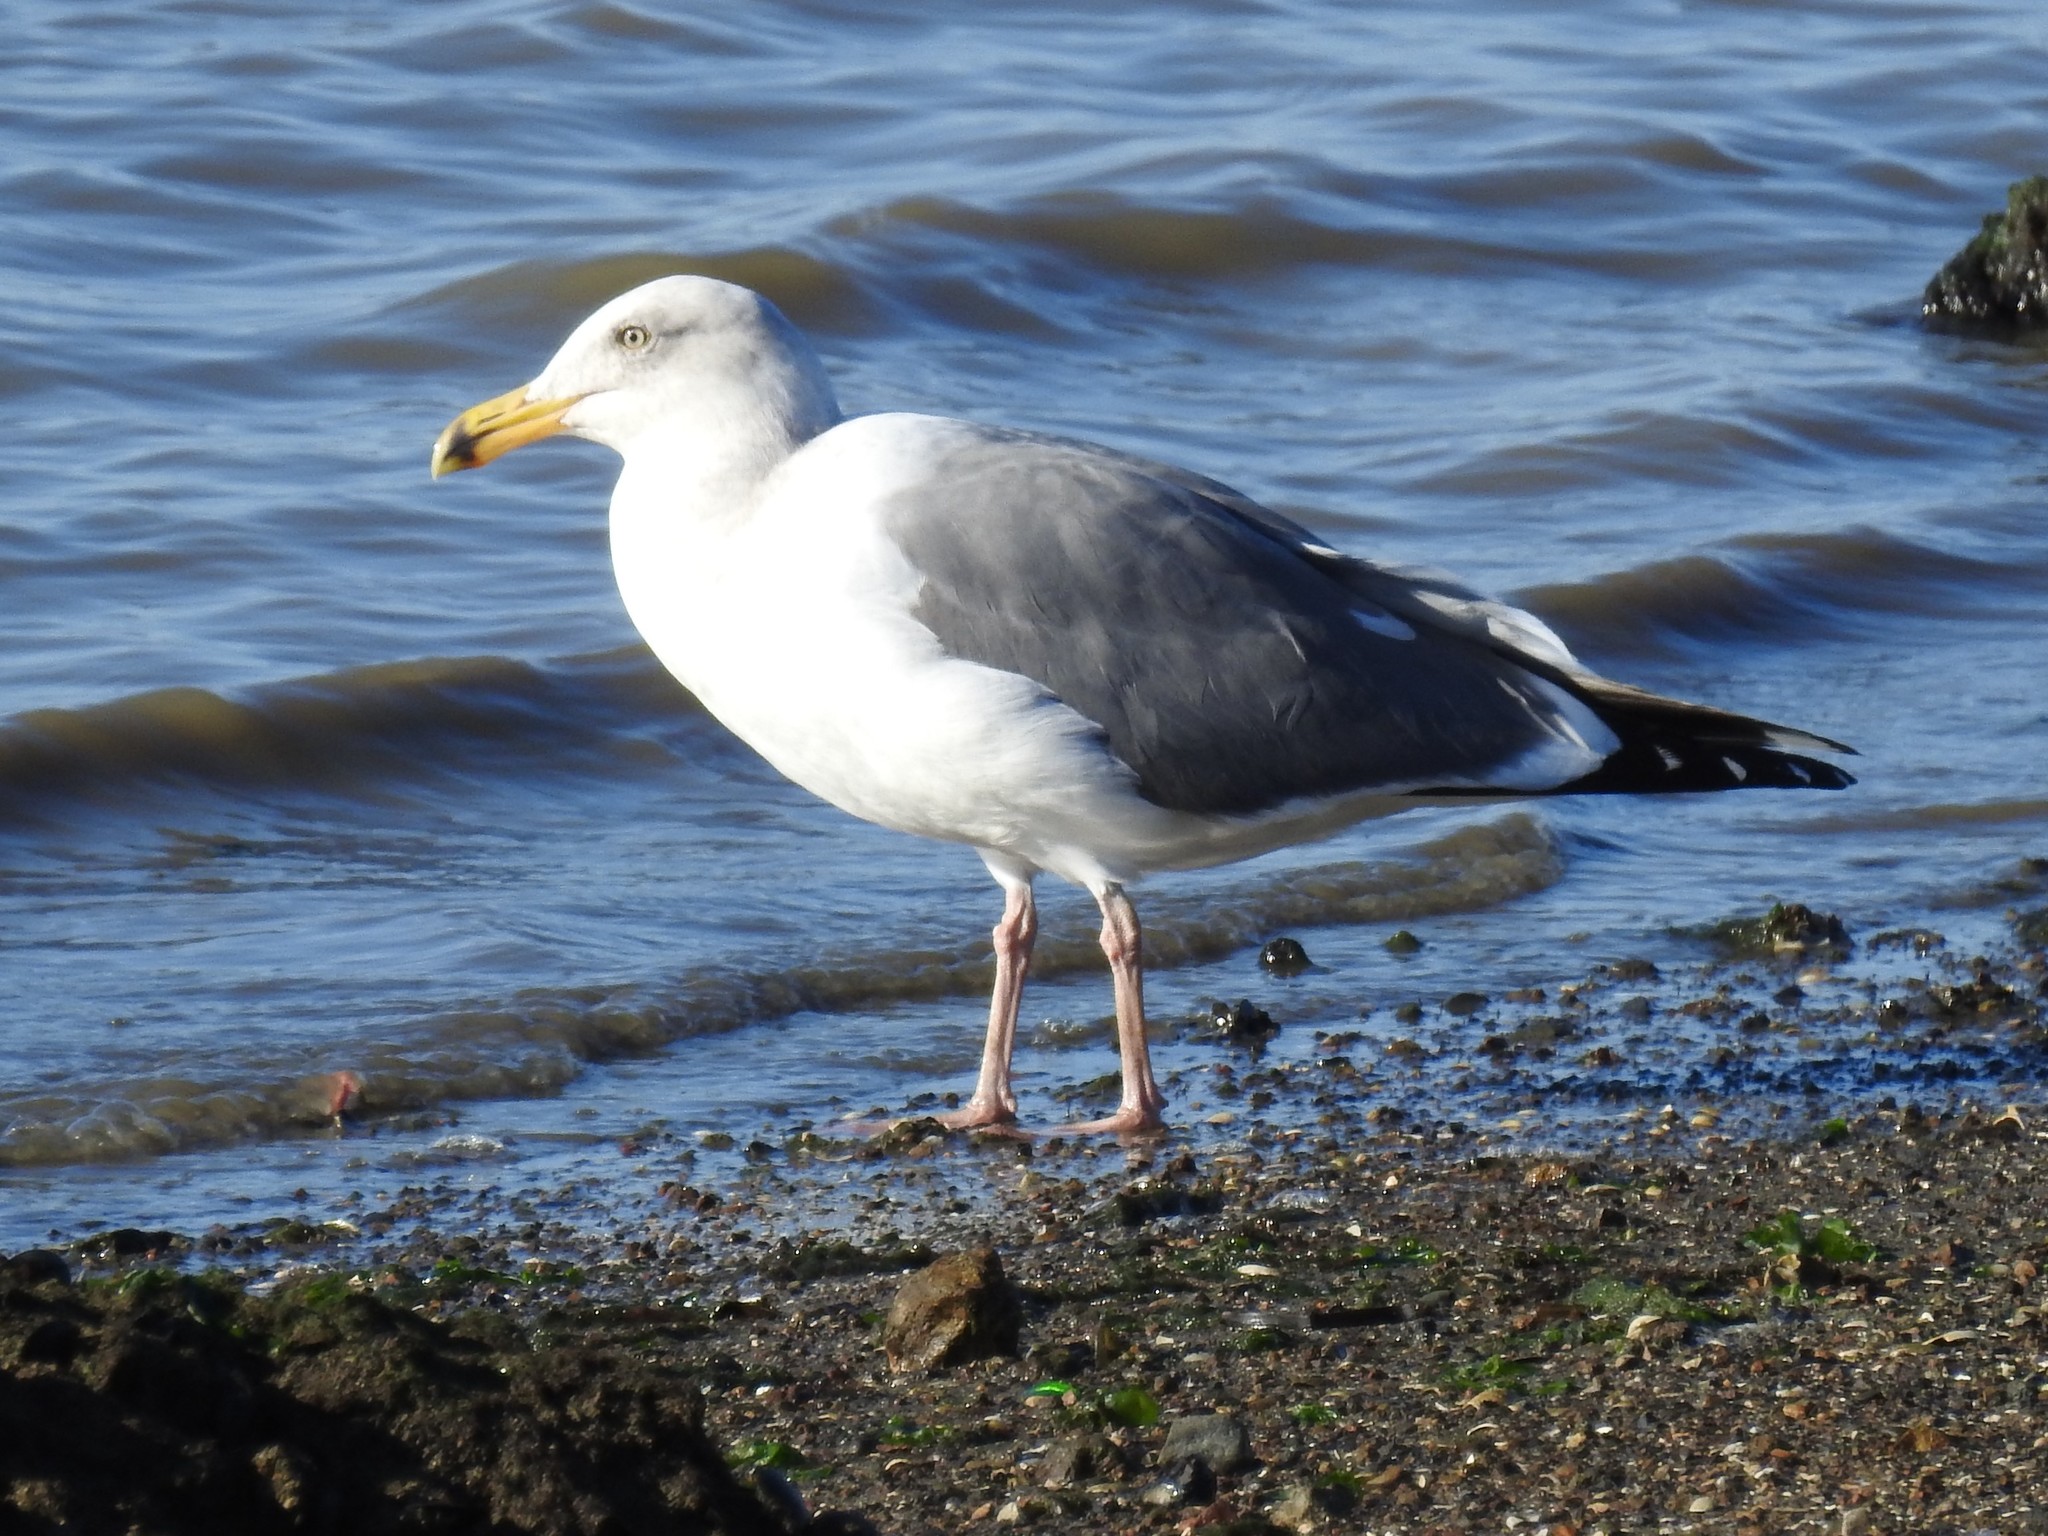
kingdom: Animalia
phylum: Chordata
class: Aves
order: Charadriiformes
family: Laridae
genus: Larus
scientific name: Larus argentatus
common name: Herring gull
